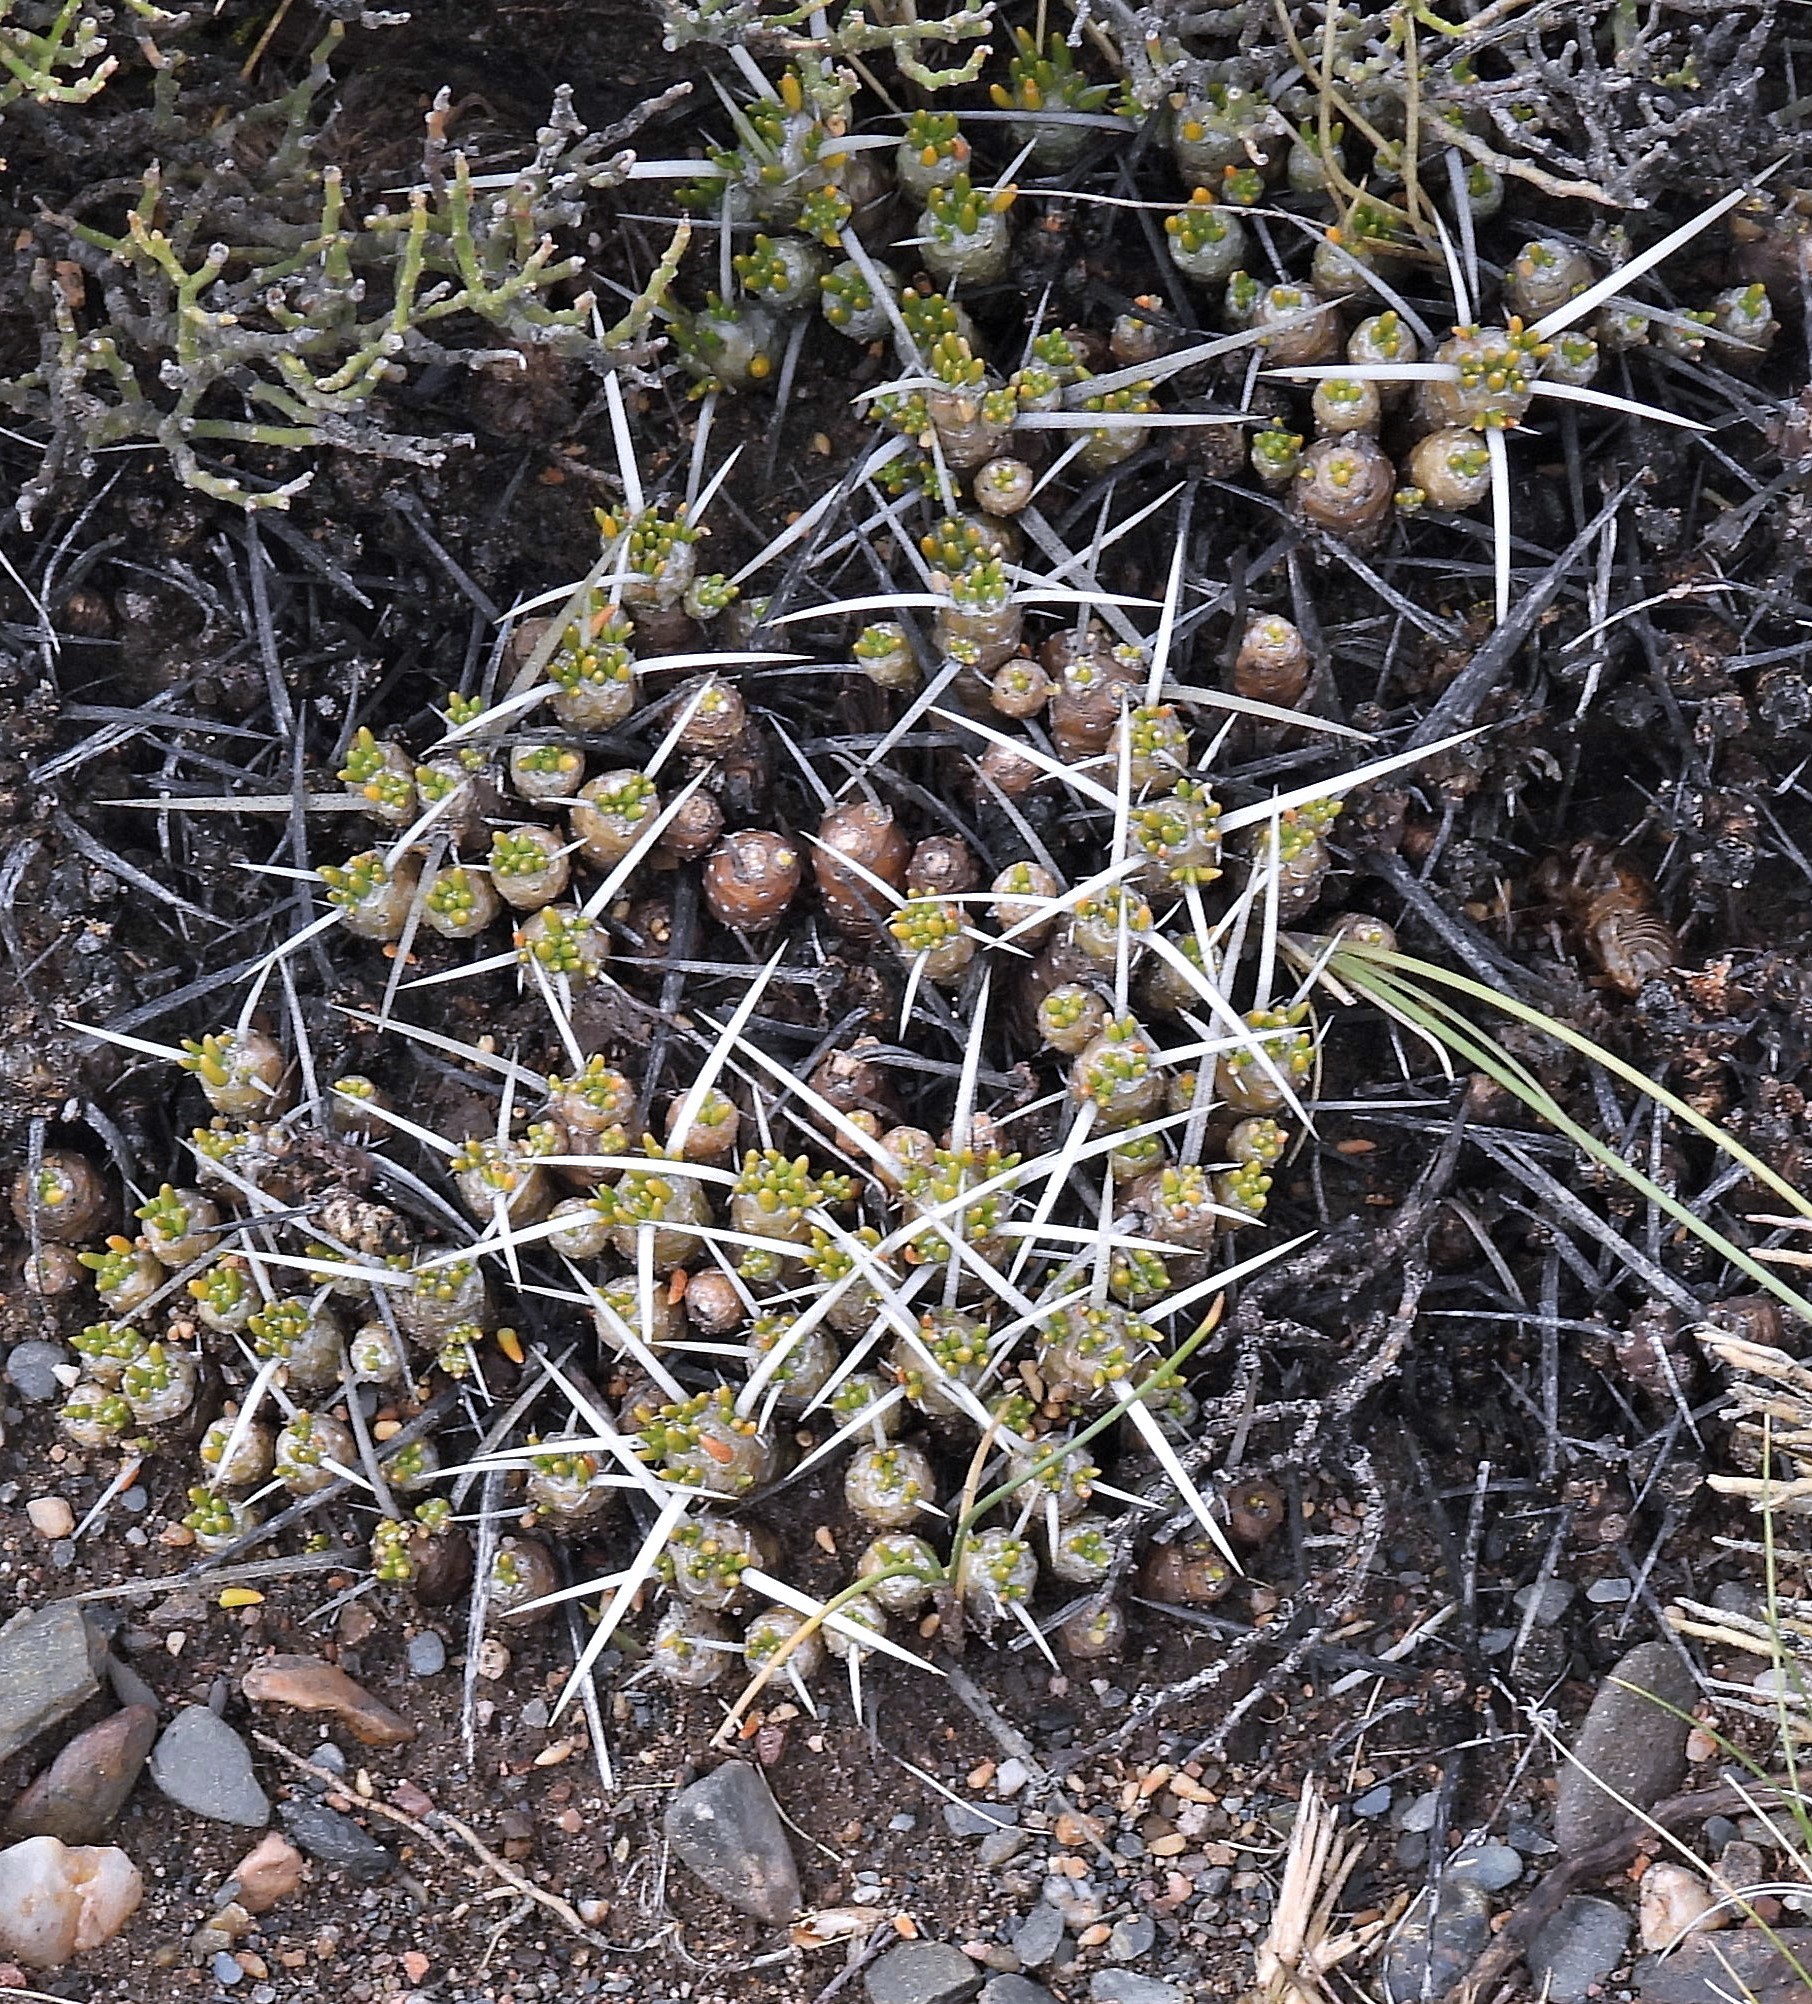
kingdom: Plantae
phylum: Tracheophyta
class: Magnoliopsida
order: Caryophyllales
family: Cactaceae
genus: Maihuenia
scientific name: Maihuenia patagonica
